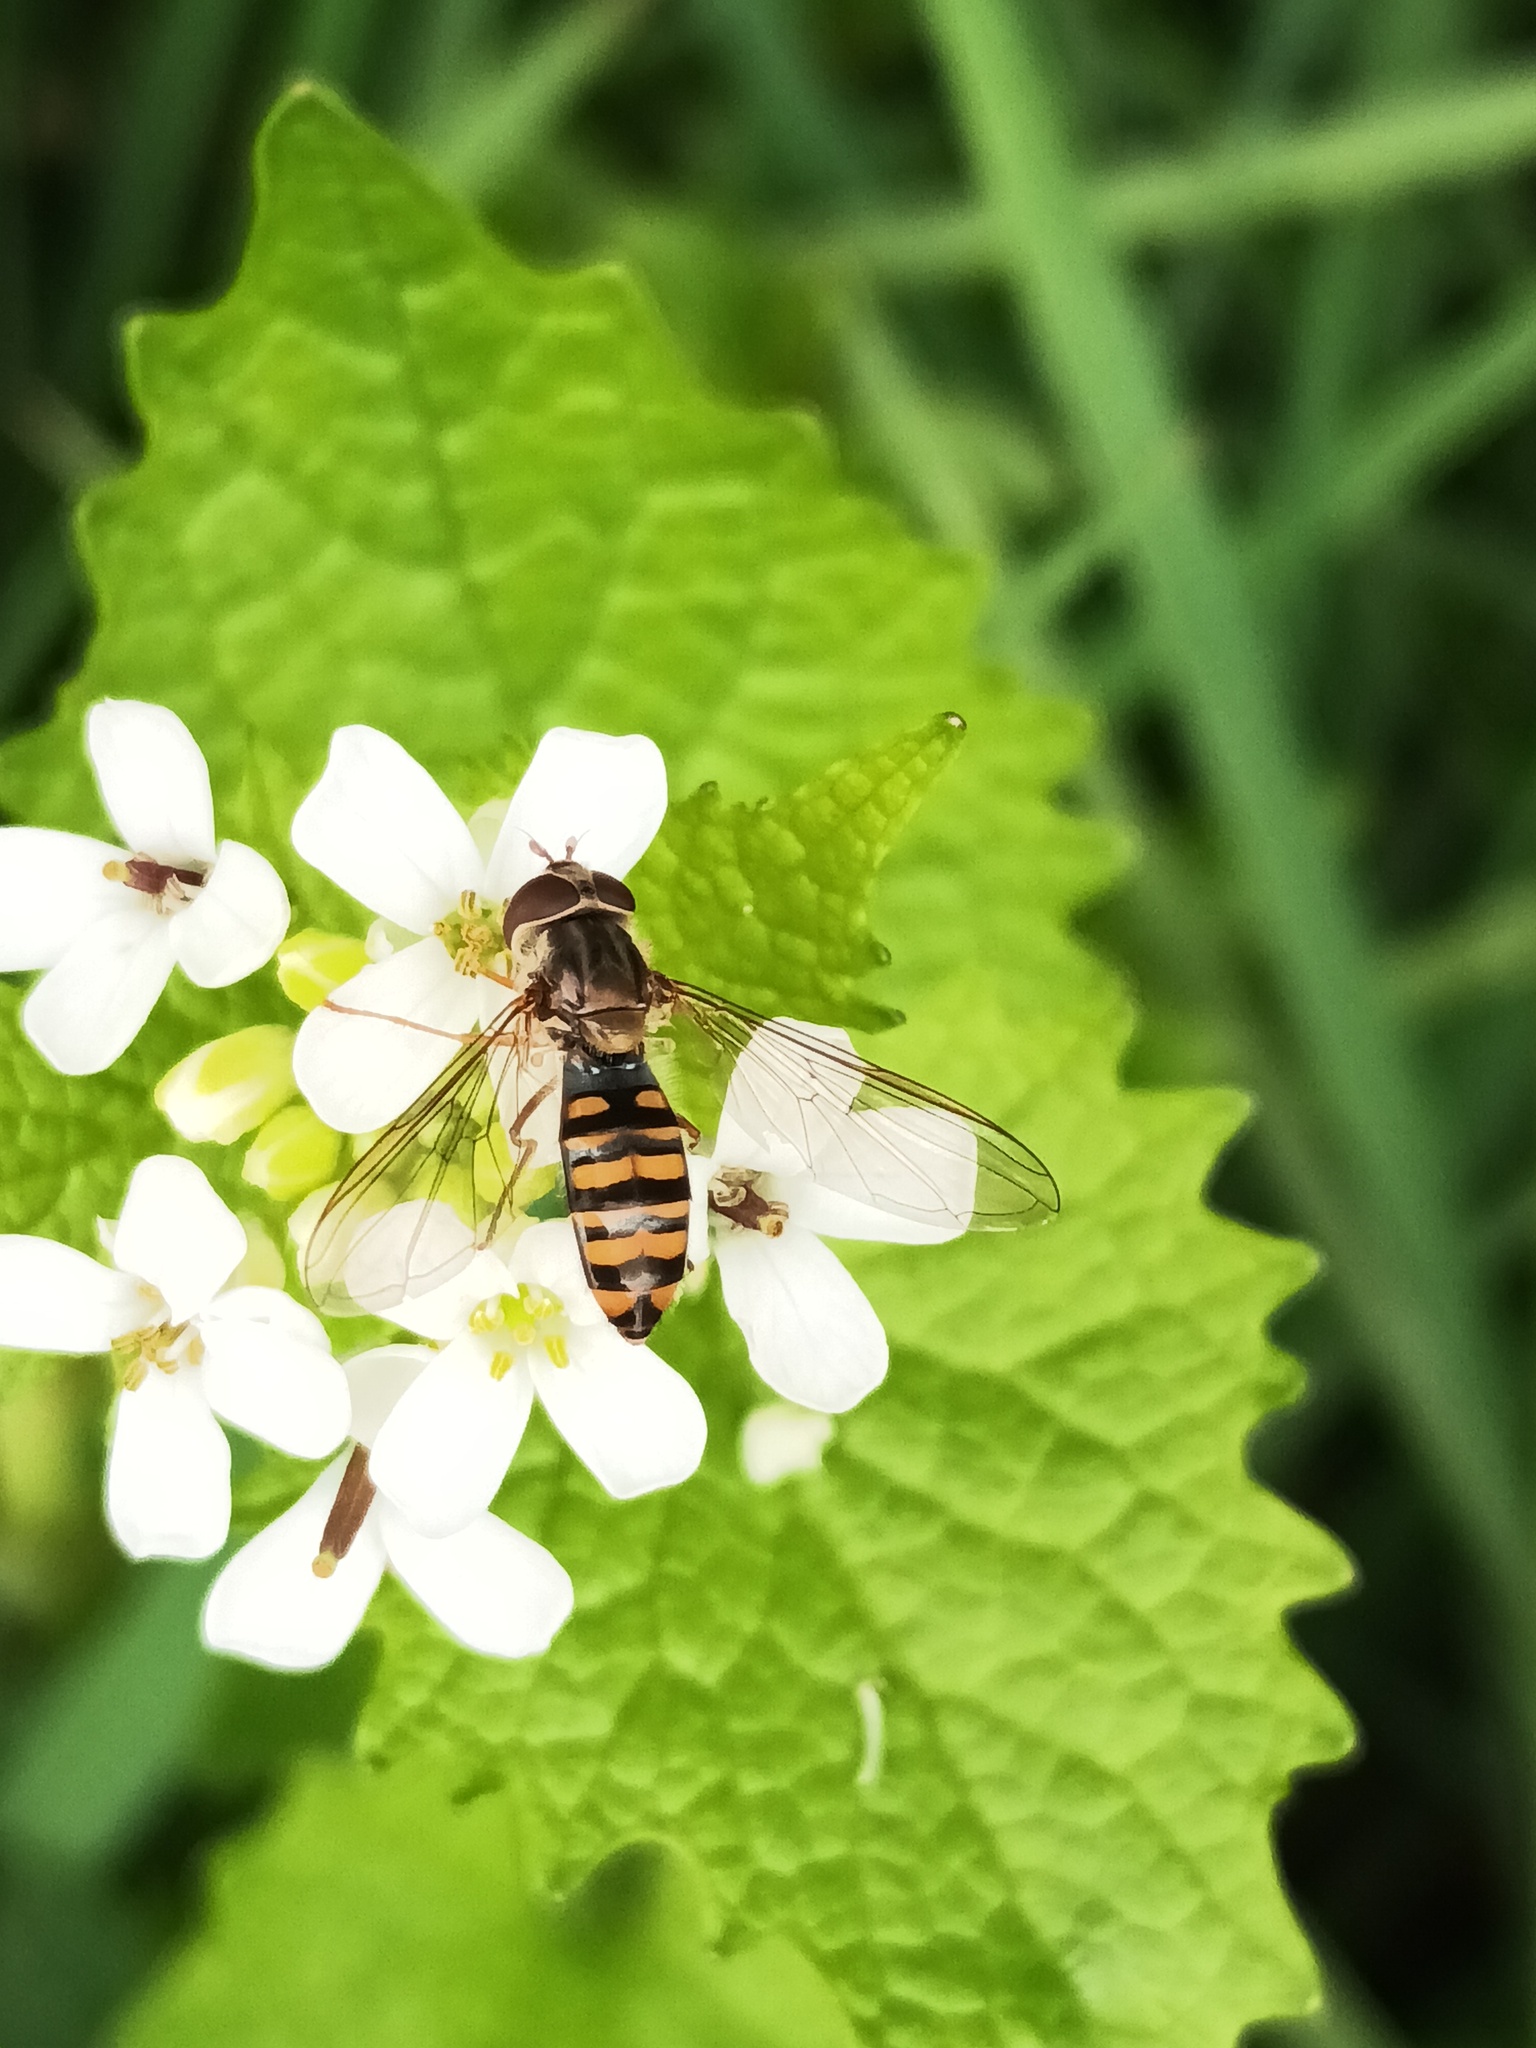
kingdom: Animalia
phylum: Arthropoda
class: Insecta
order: Diptera
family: Syrphidae
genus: Episyrphus
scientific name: Episyrphus balteatus
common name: Marmalade hoverfly
